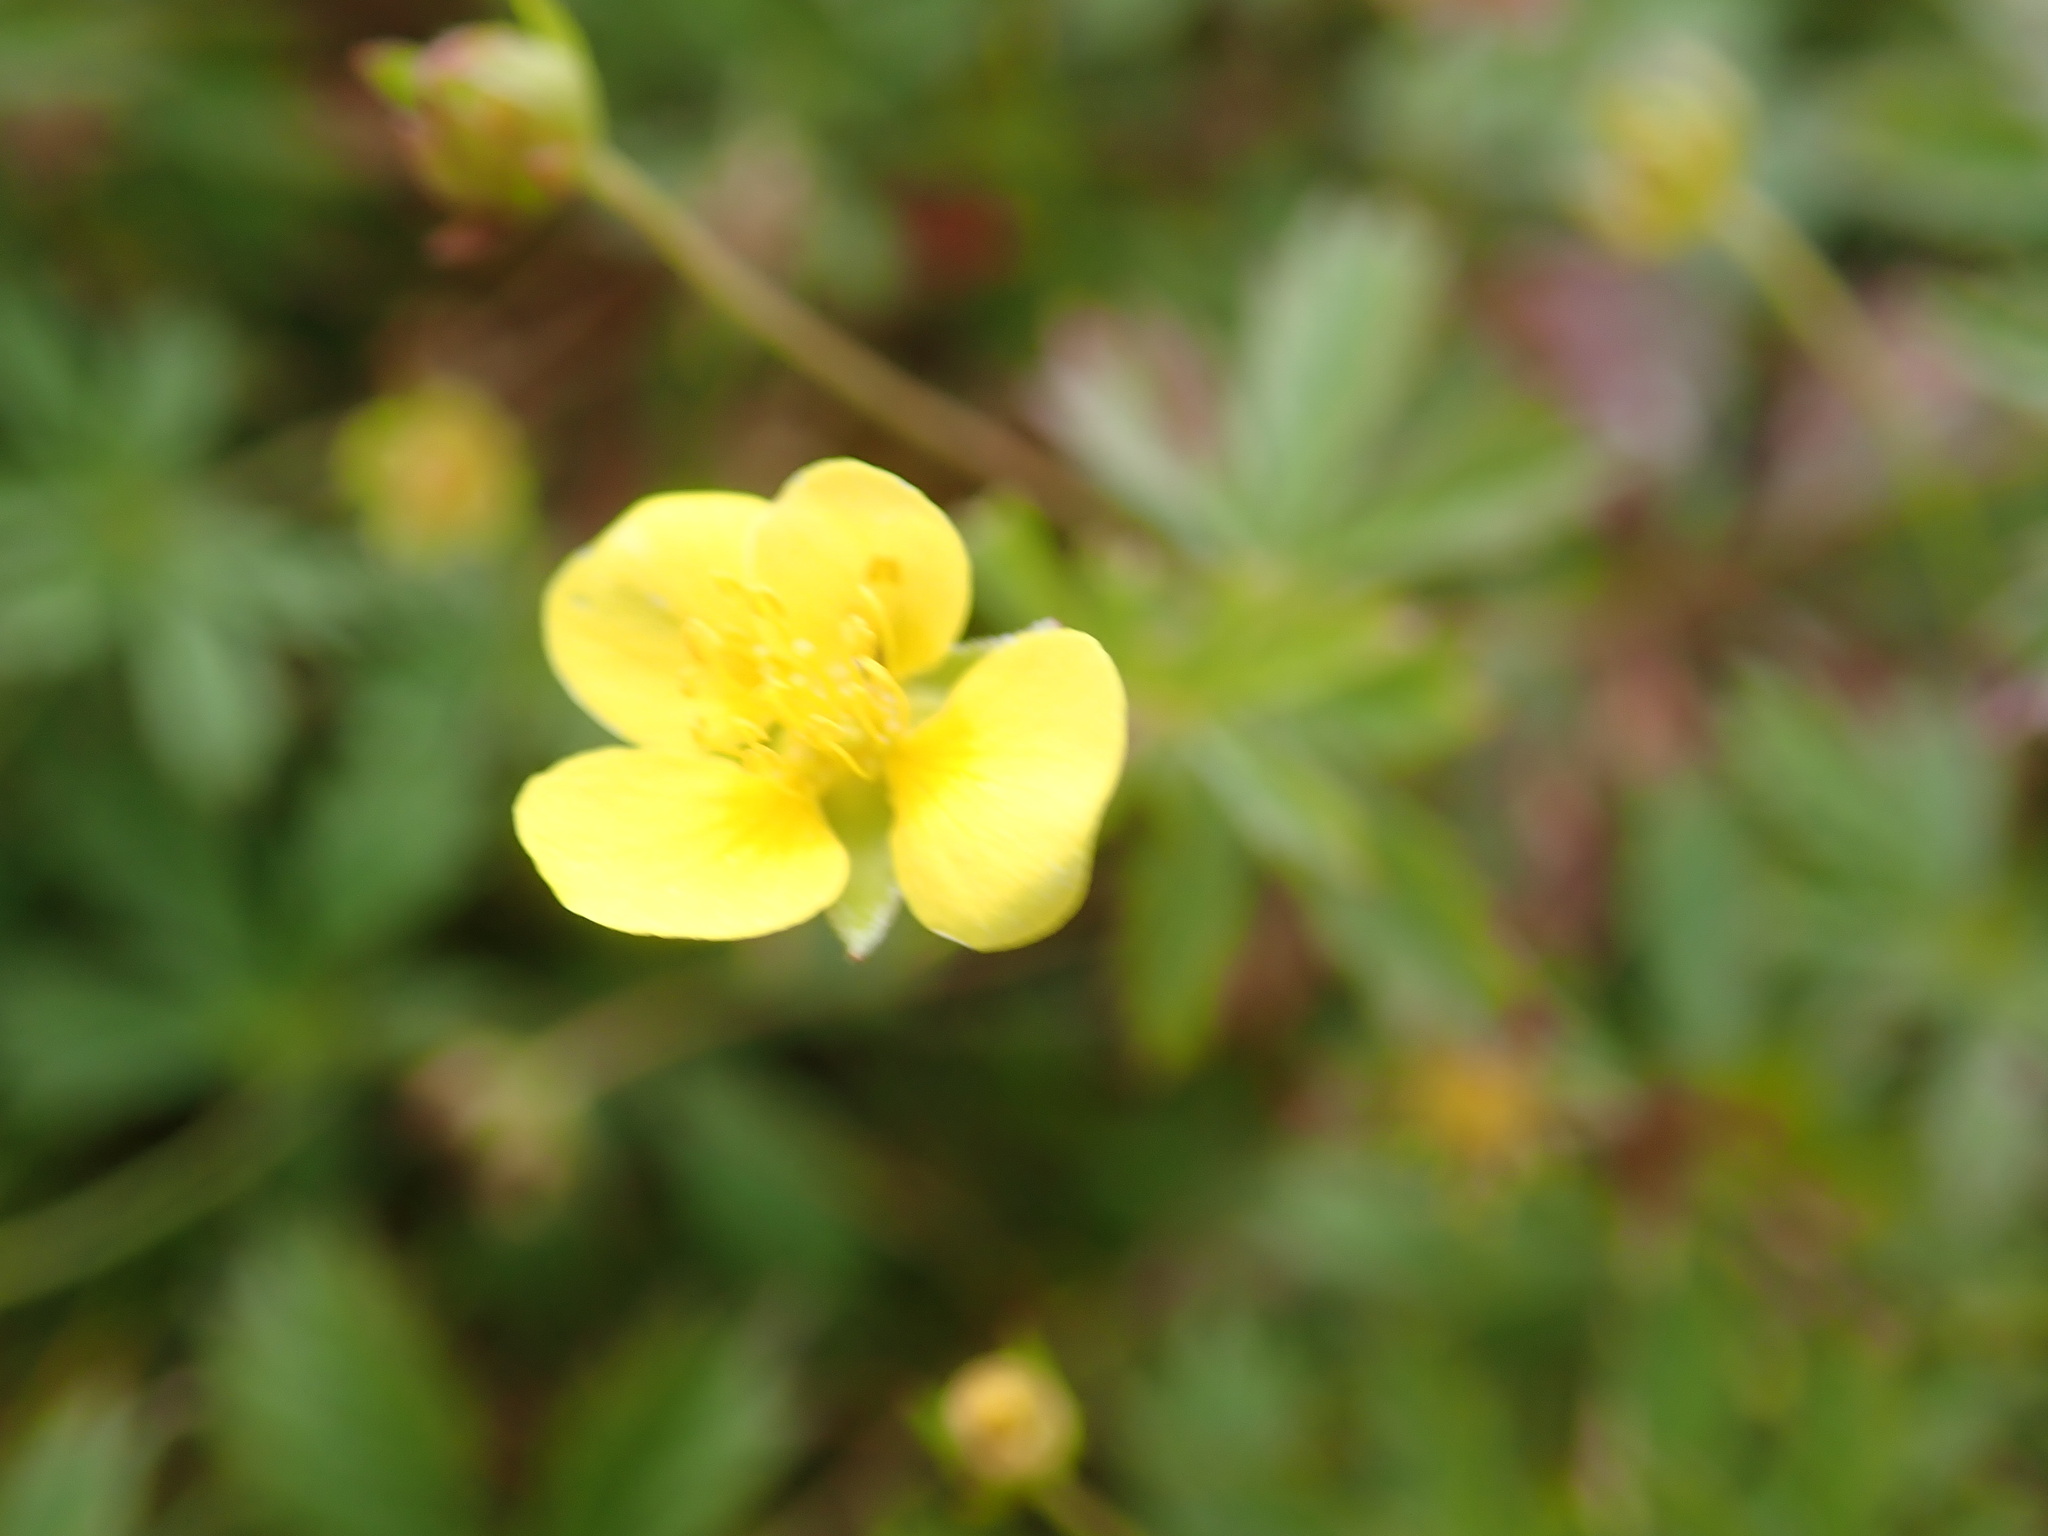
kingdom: Plantae
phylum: Tracheophyta
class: Magnoliopsida
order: Rosales
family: Rosaceae
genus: Potentilla
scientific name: Potentilla erecta
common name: Tormentil
